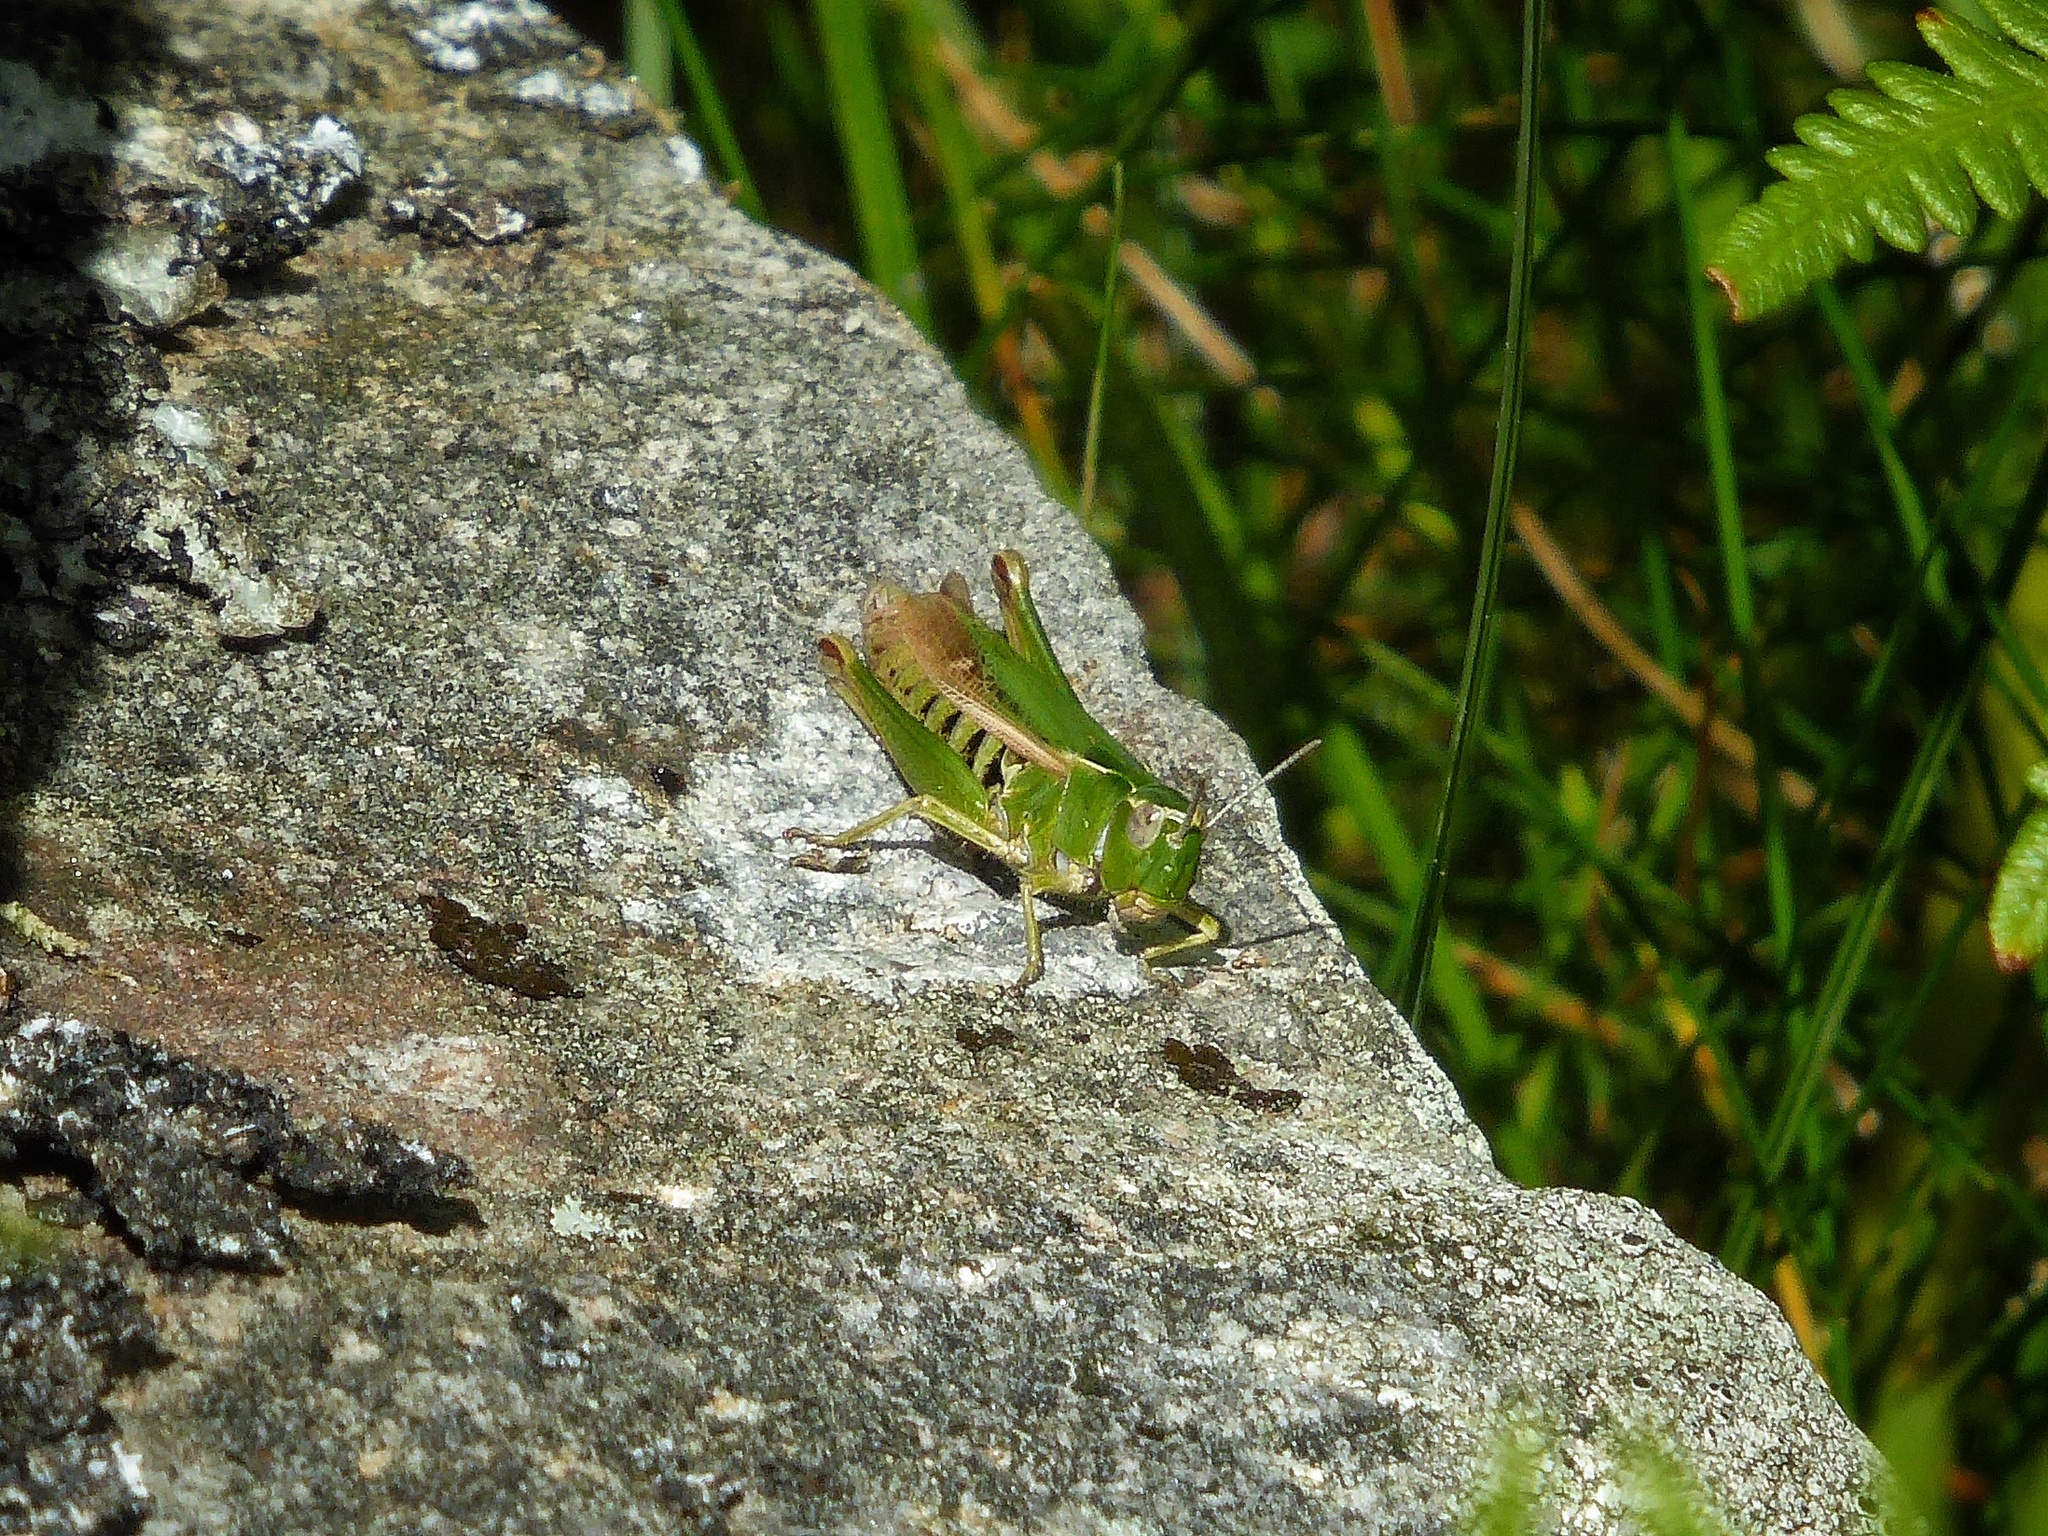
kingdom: Animalia
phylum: Arthropoda
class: Insecta
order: Orthoptera
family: Acrididae
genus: Omocestus
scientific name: Omocestus viridulus
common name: Common green grasshopper
